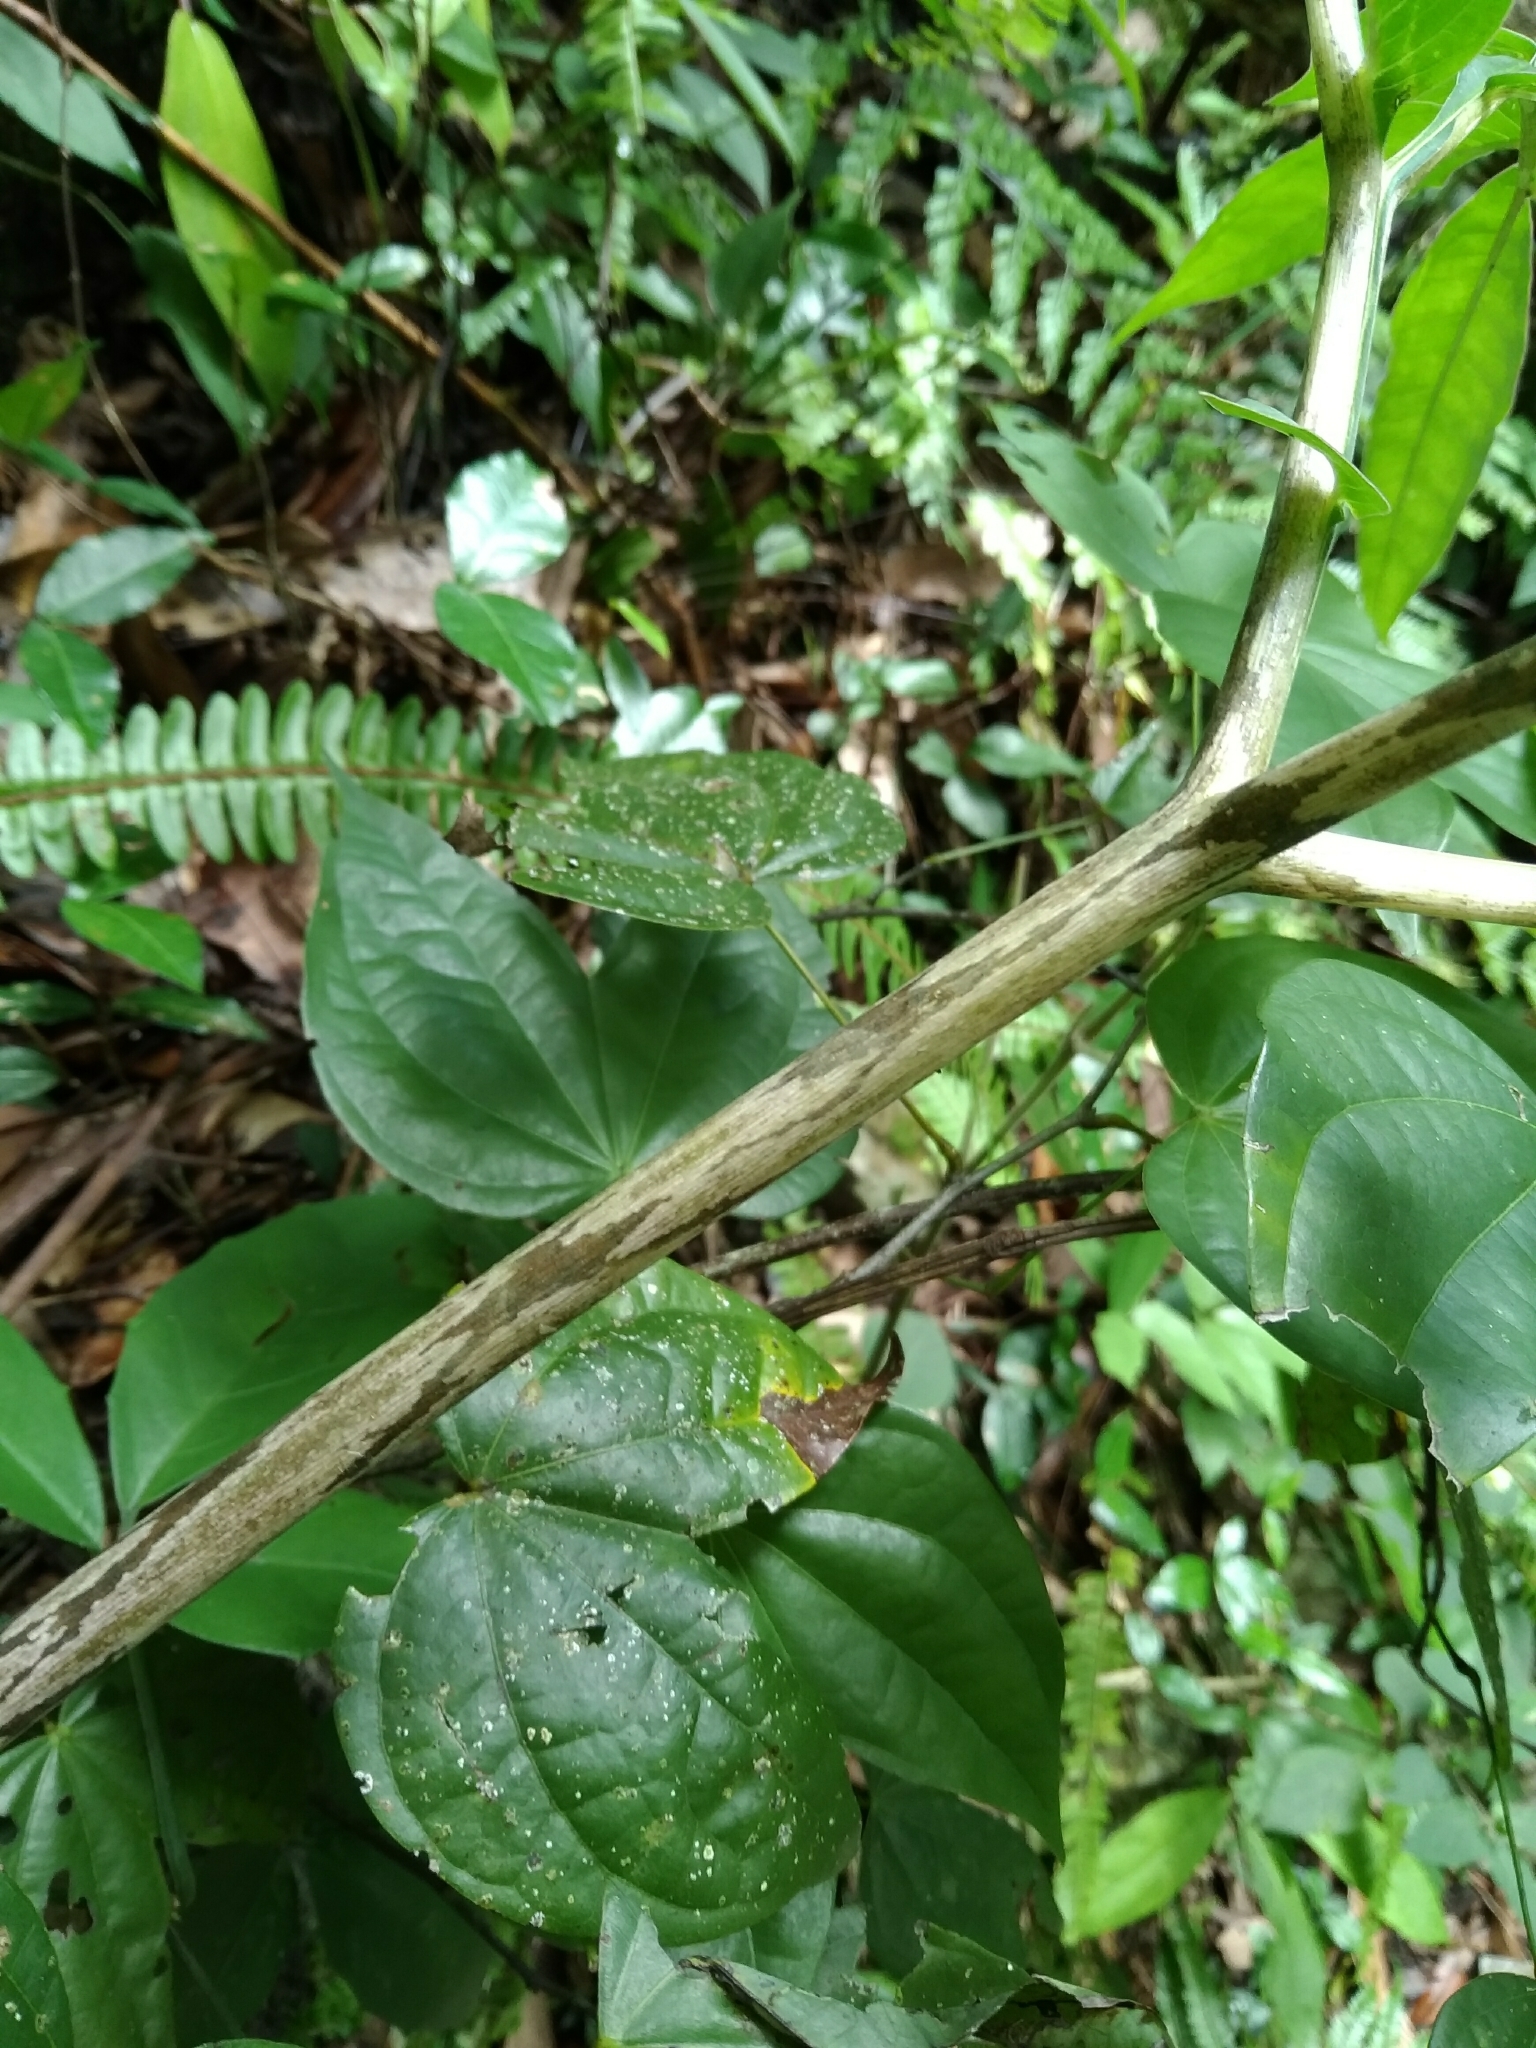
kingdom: Plantae
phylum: Tracheophyta
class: Liliopsida
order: Alismatales
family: Araceae
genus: Amorphophallus
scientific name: Amorphophallus kiusianus
